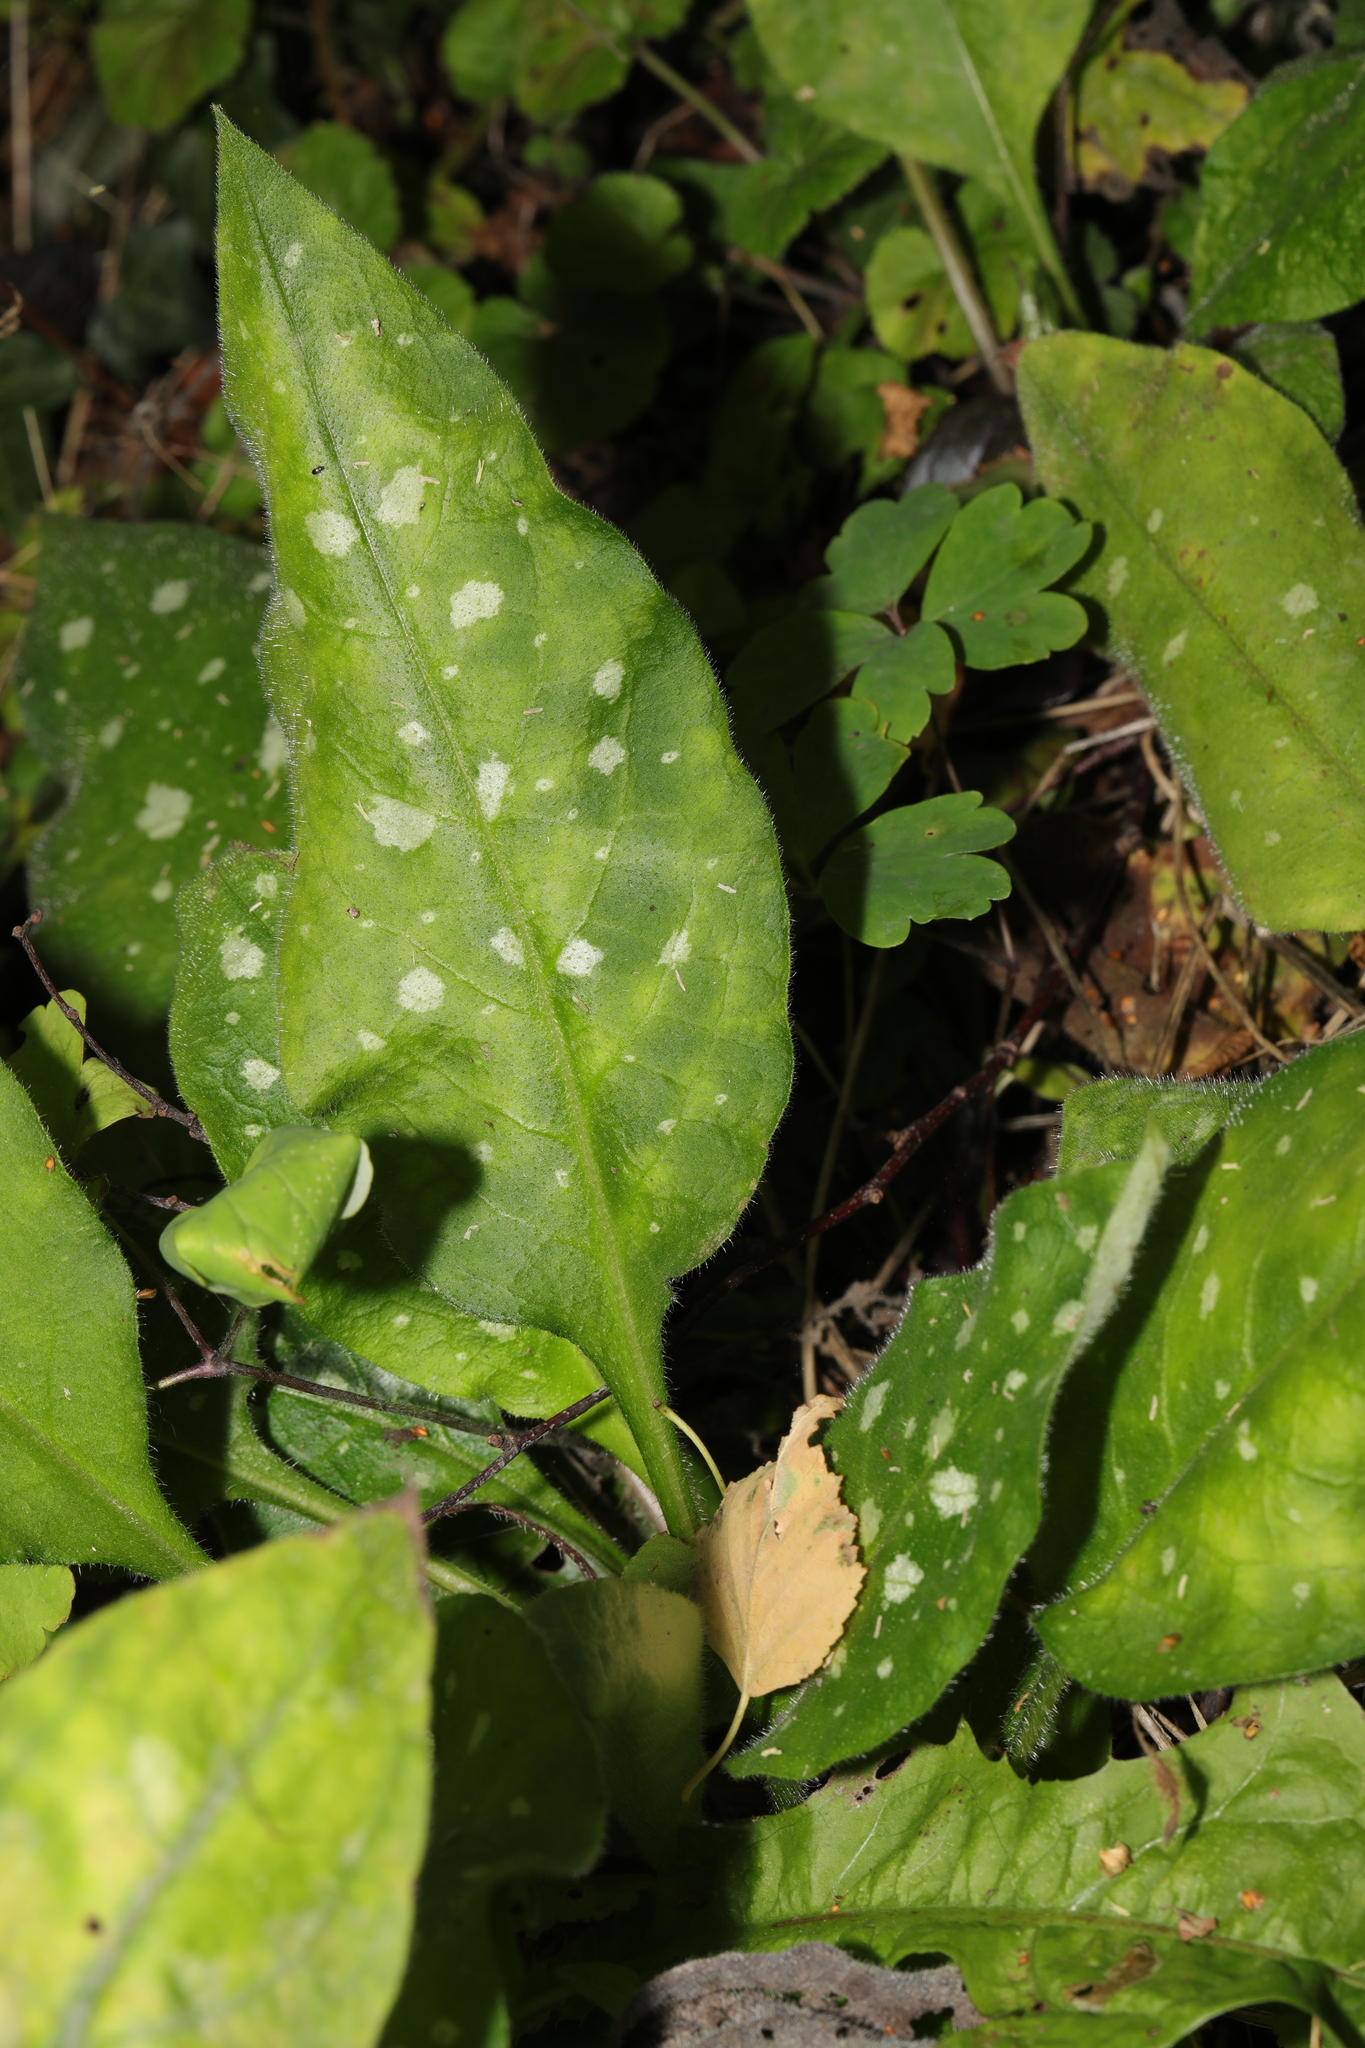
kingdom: Plantae
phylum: Tracheophyta
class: Magnoliopsida
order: Boraginales
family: Boraginaceae
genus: Pulmonaria
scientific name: Pulmonaria officinalis
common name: Lungwort
